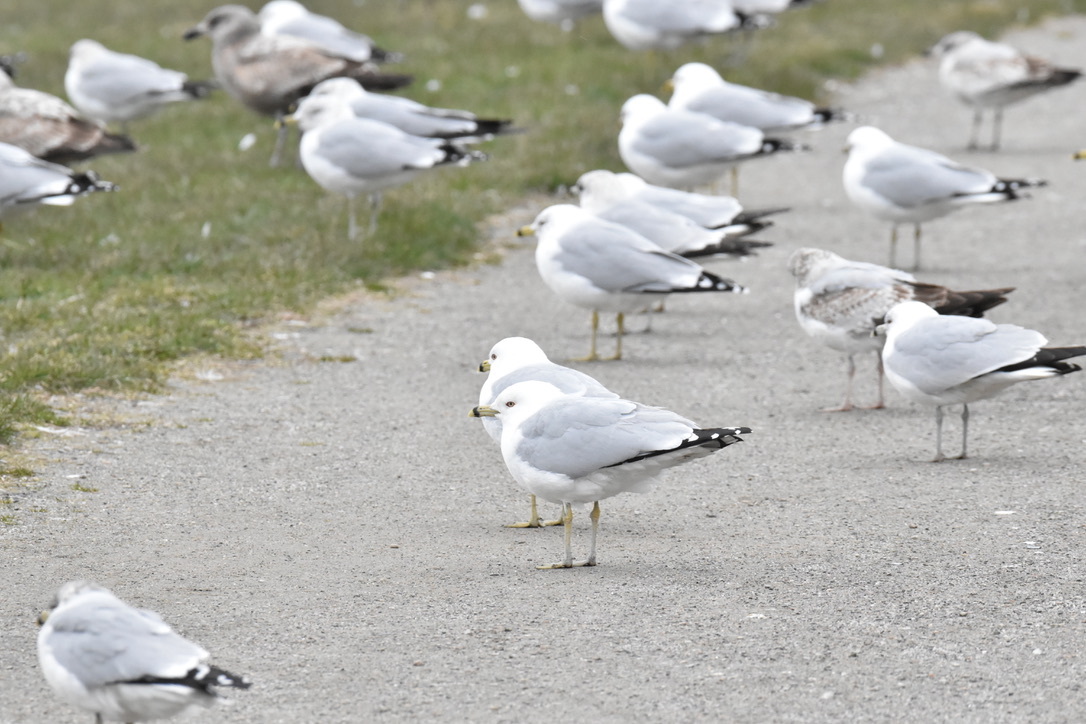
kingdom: Animalia
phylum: Chordata
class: Aves
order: Charadriiformes
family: Laridae
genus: Larus
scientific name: Larus delawarensis
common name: Ring-billed gull
